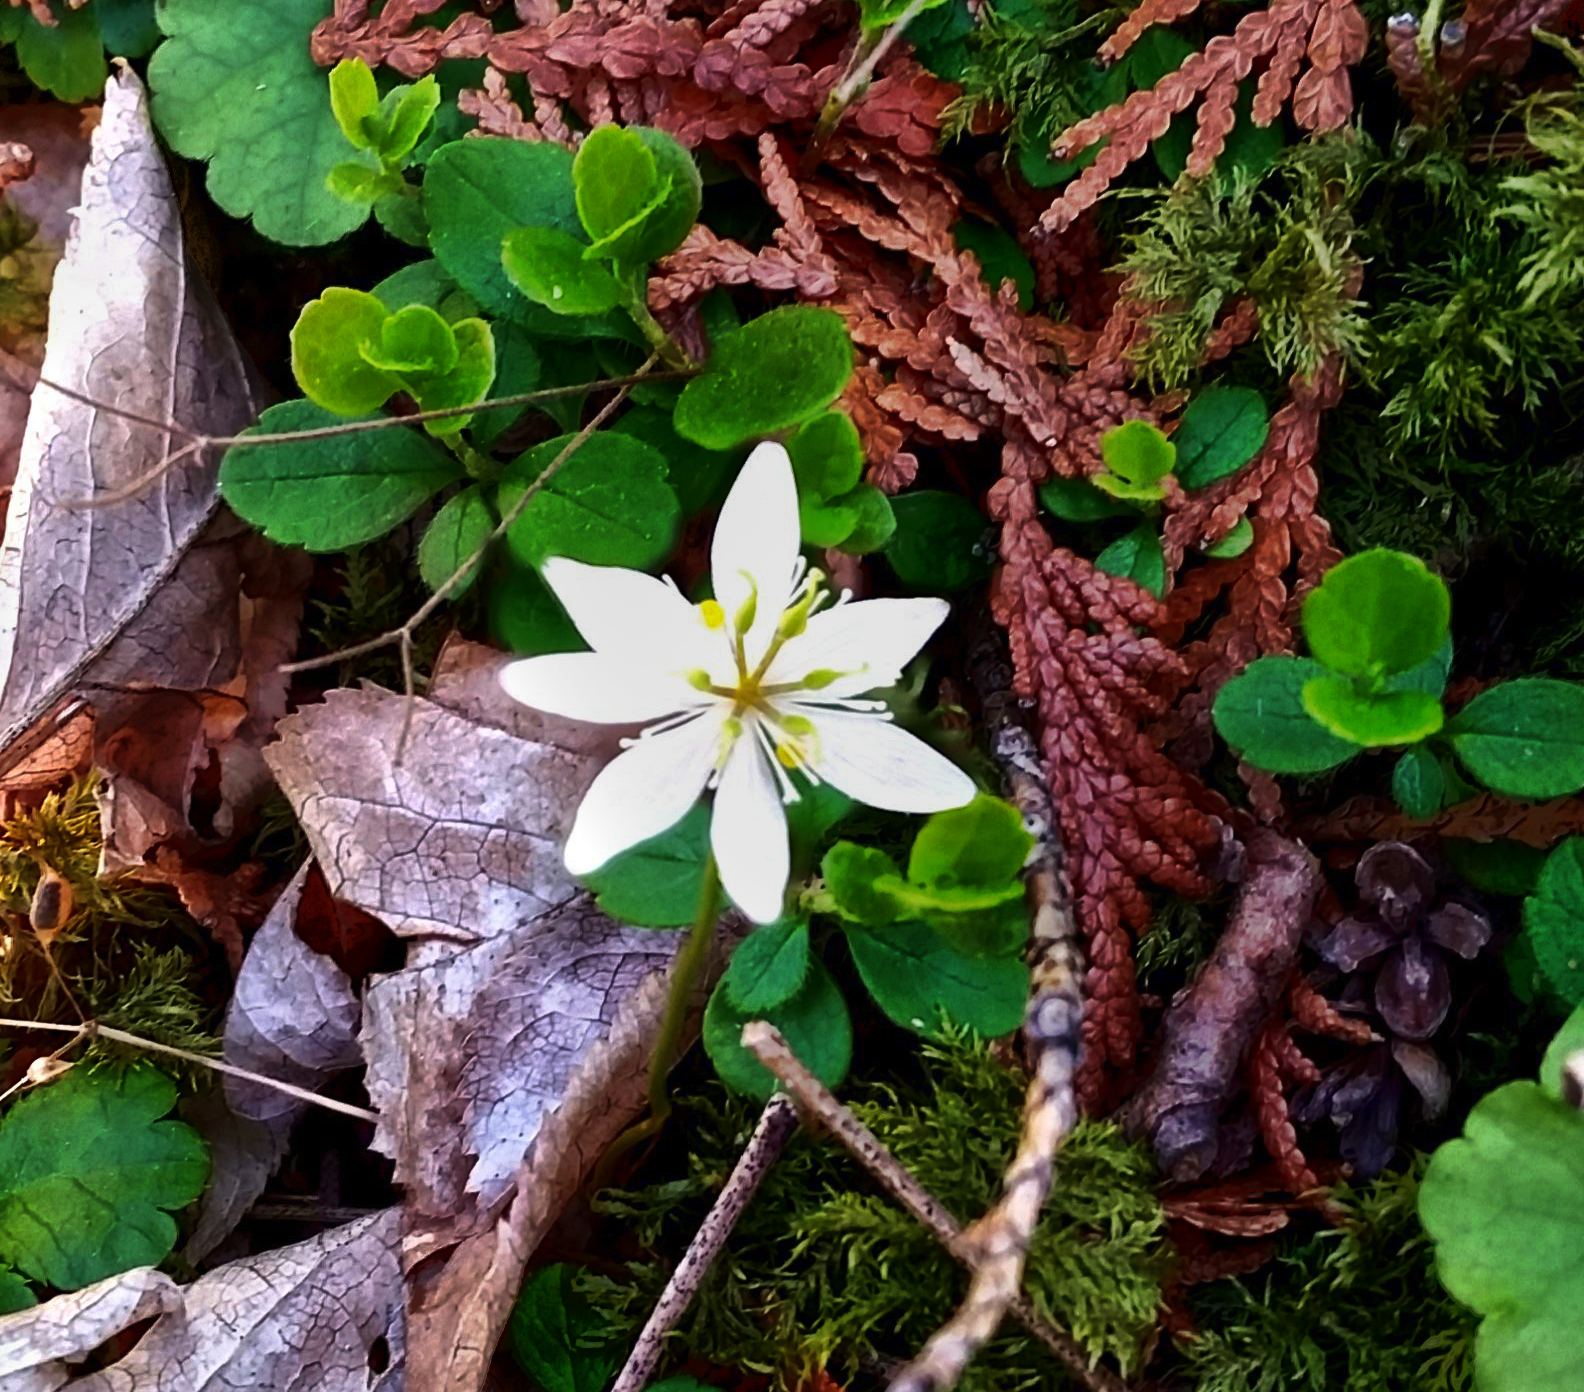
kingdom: Plantae
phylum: Tracheophyta
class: Magnoliopsida
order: Ranunculales
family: Ranunculaceae
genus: Coptis
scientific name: Coptis trifolia
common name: Canker-root
